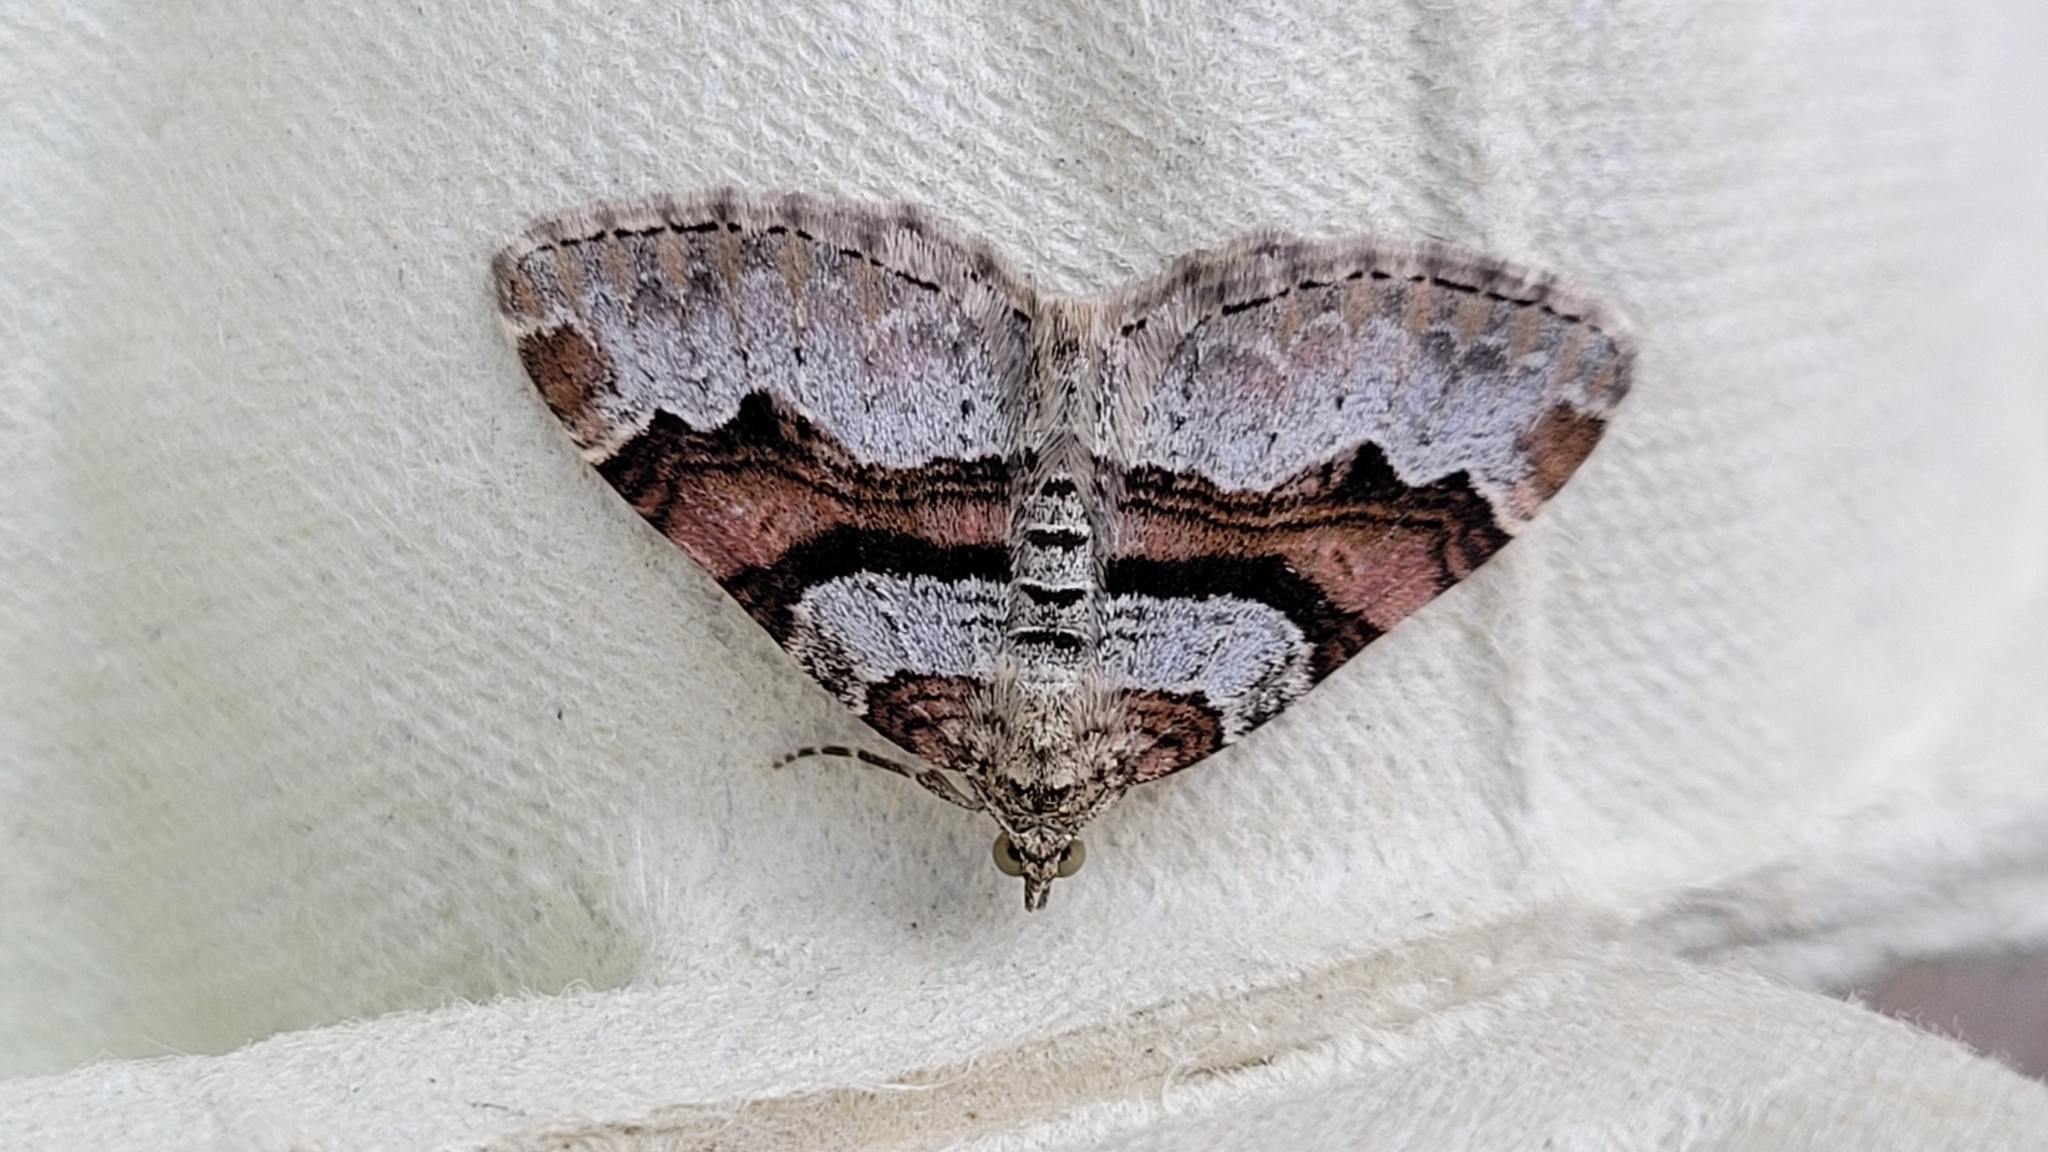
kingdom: Animalia
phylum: Arthropoda
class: Insecta
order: Lepidoptera
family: Geometridae
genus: Xanthorhoe
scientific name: Xanthorhoe designata
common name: Flame carpet
